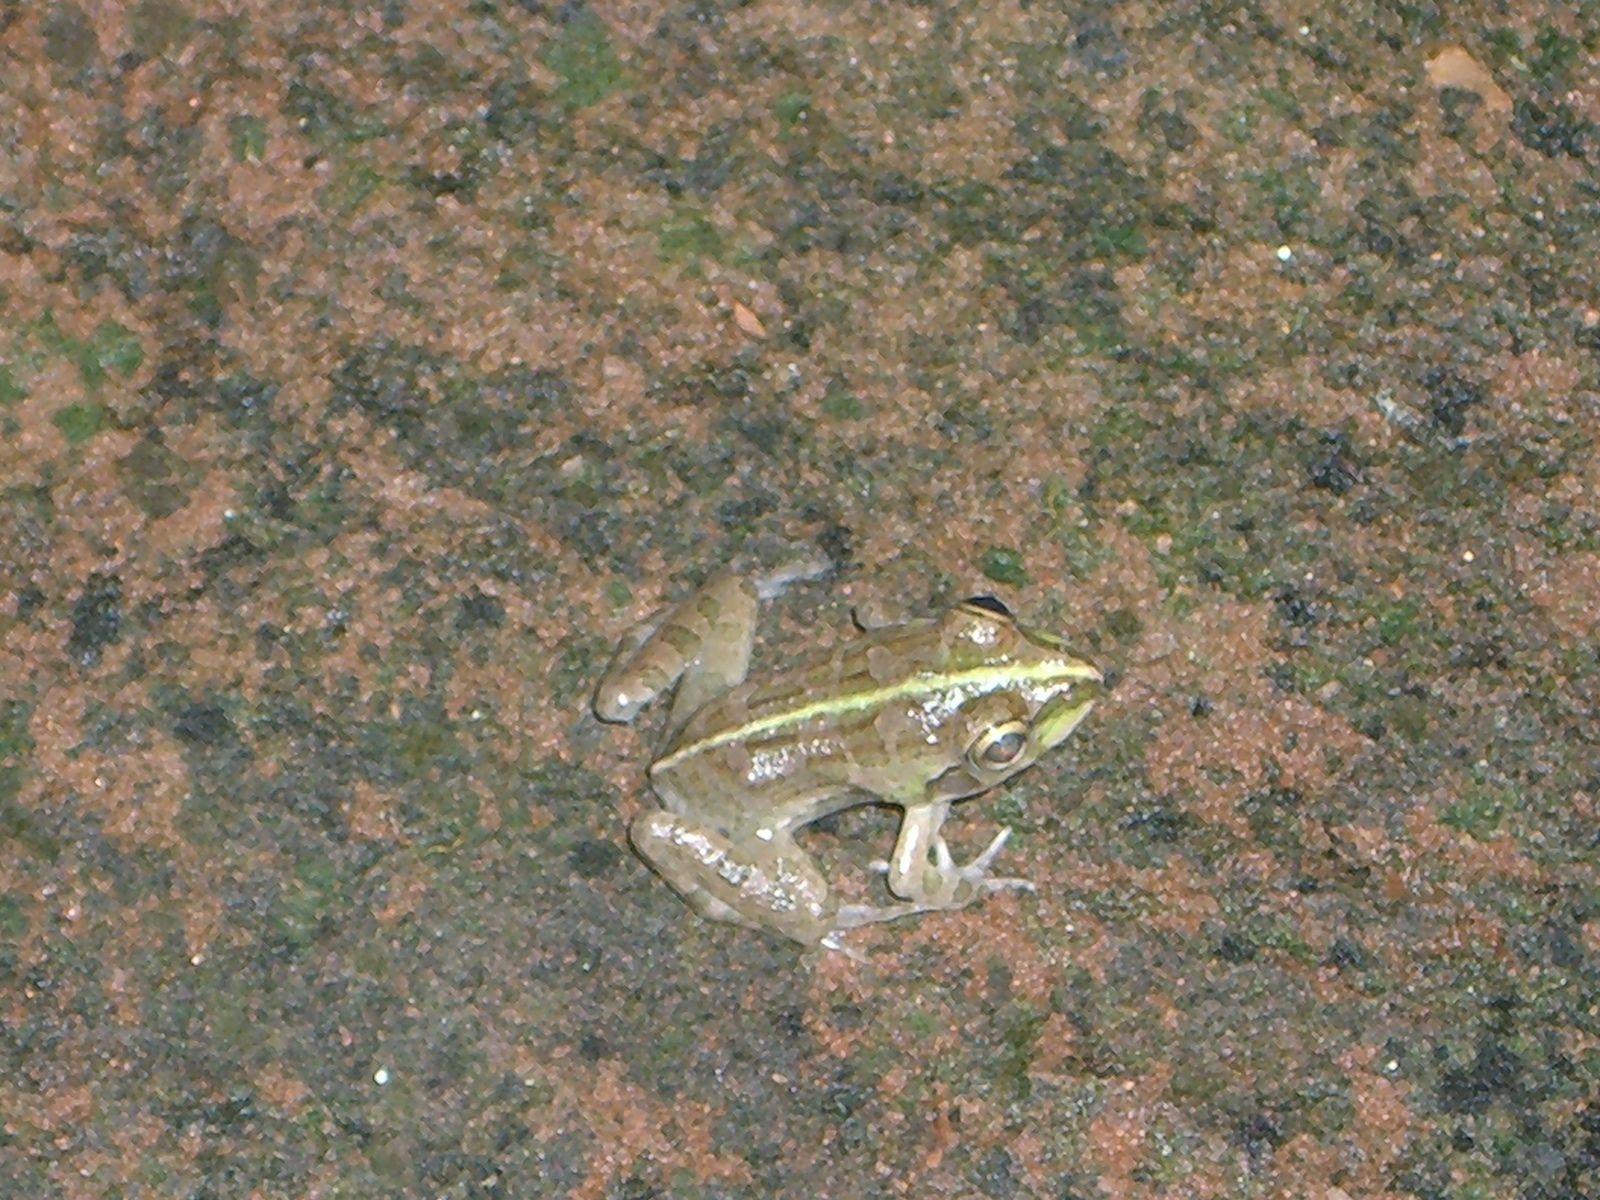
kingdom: Animalia
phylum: Chordata
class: Amphibia
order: Anura
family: Dicroglossidae
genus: Euphlyctis
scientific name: Euphlyctis hexadactylus
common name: Indian green frog
